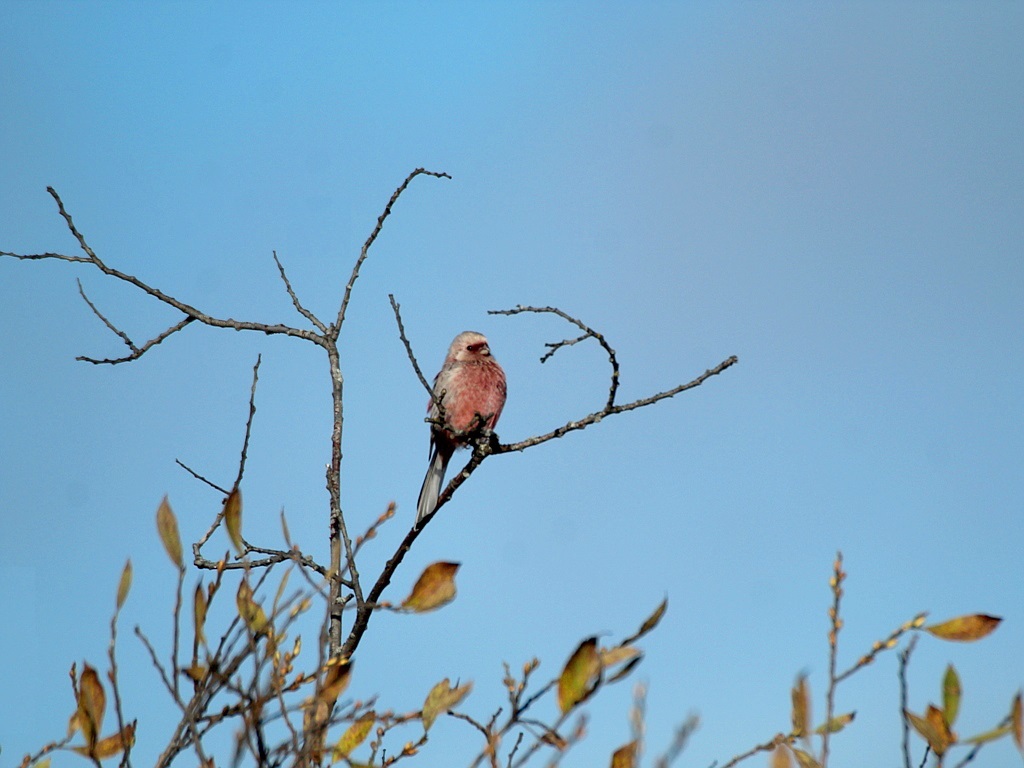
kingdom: Animalia
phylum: Chordata
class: Aves
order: Passeriformes
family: Fringillidae
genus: Carpodacus
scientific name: Carpodacus sibiricus
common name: Long-tailed rosefinch
